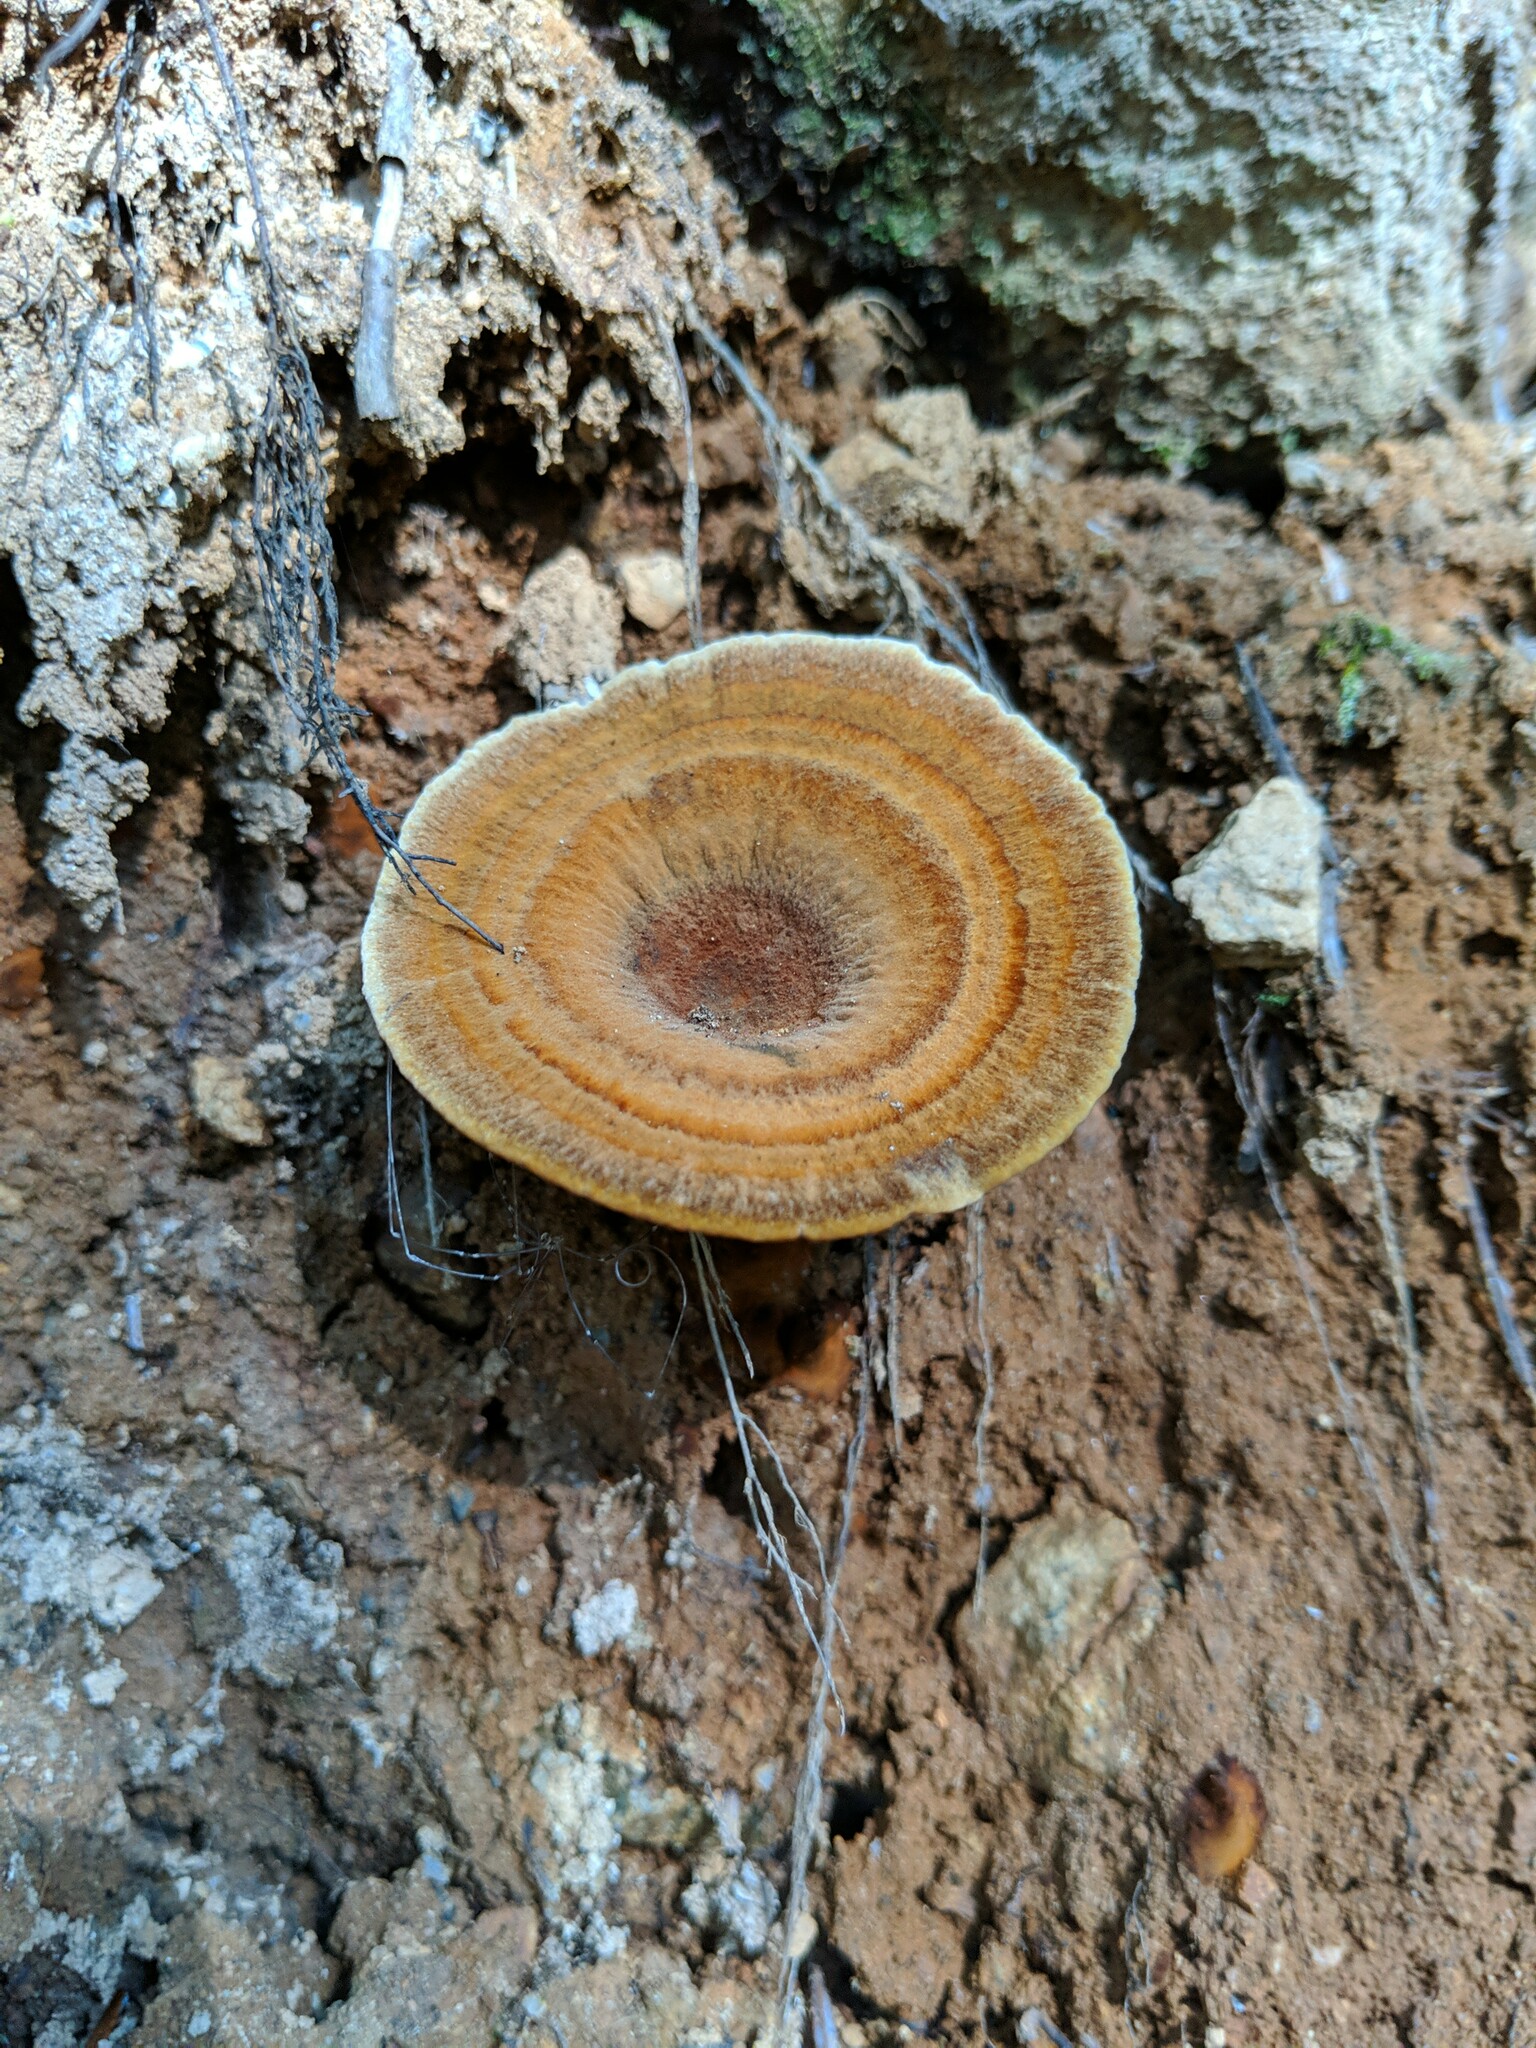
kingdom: Fungi
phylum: Basidiomycota
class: Agaricomycetes
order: Hymenochaetales
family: Hymenochaetaceae
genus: Coltricia
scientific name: Coltricia perennis
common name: Tiger's eye
